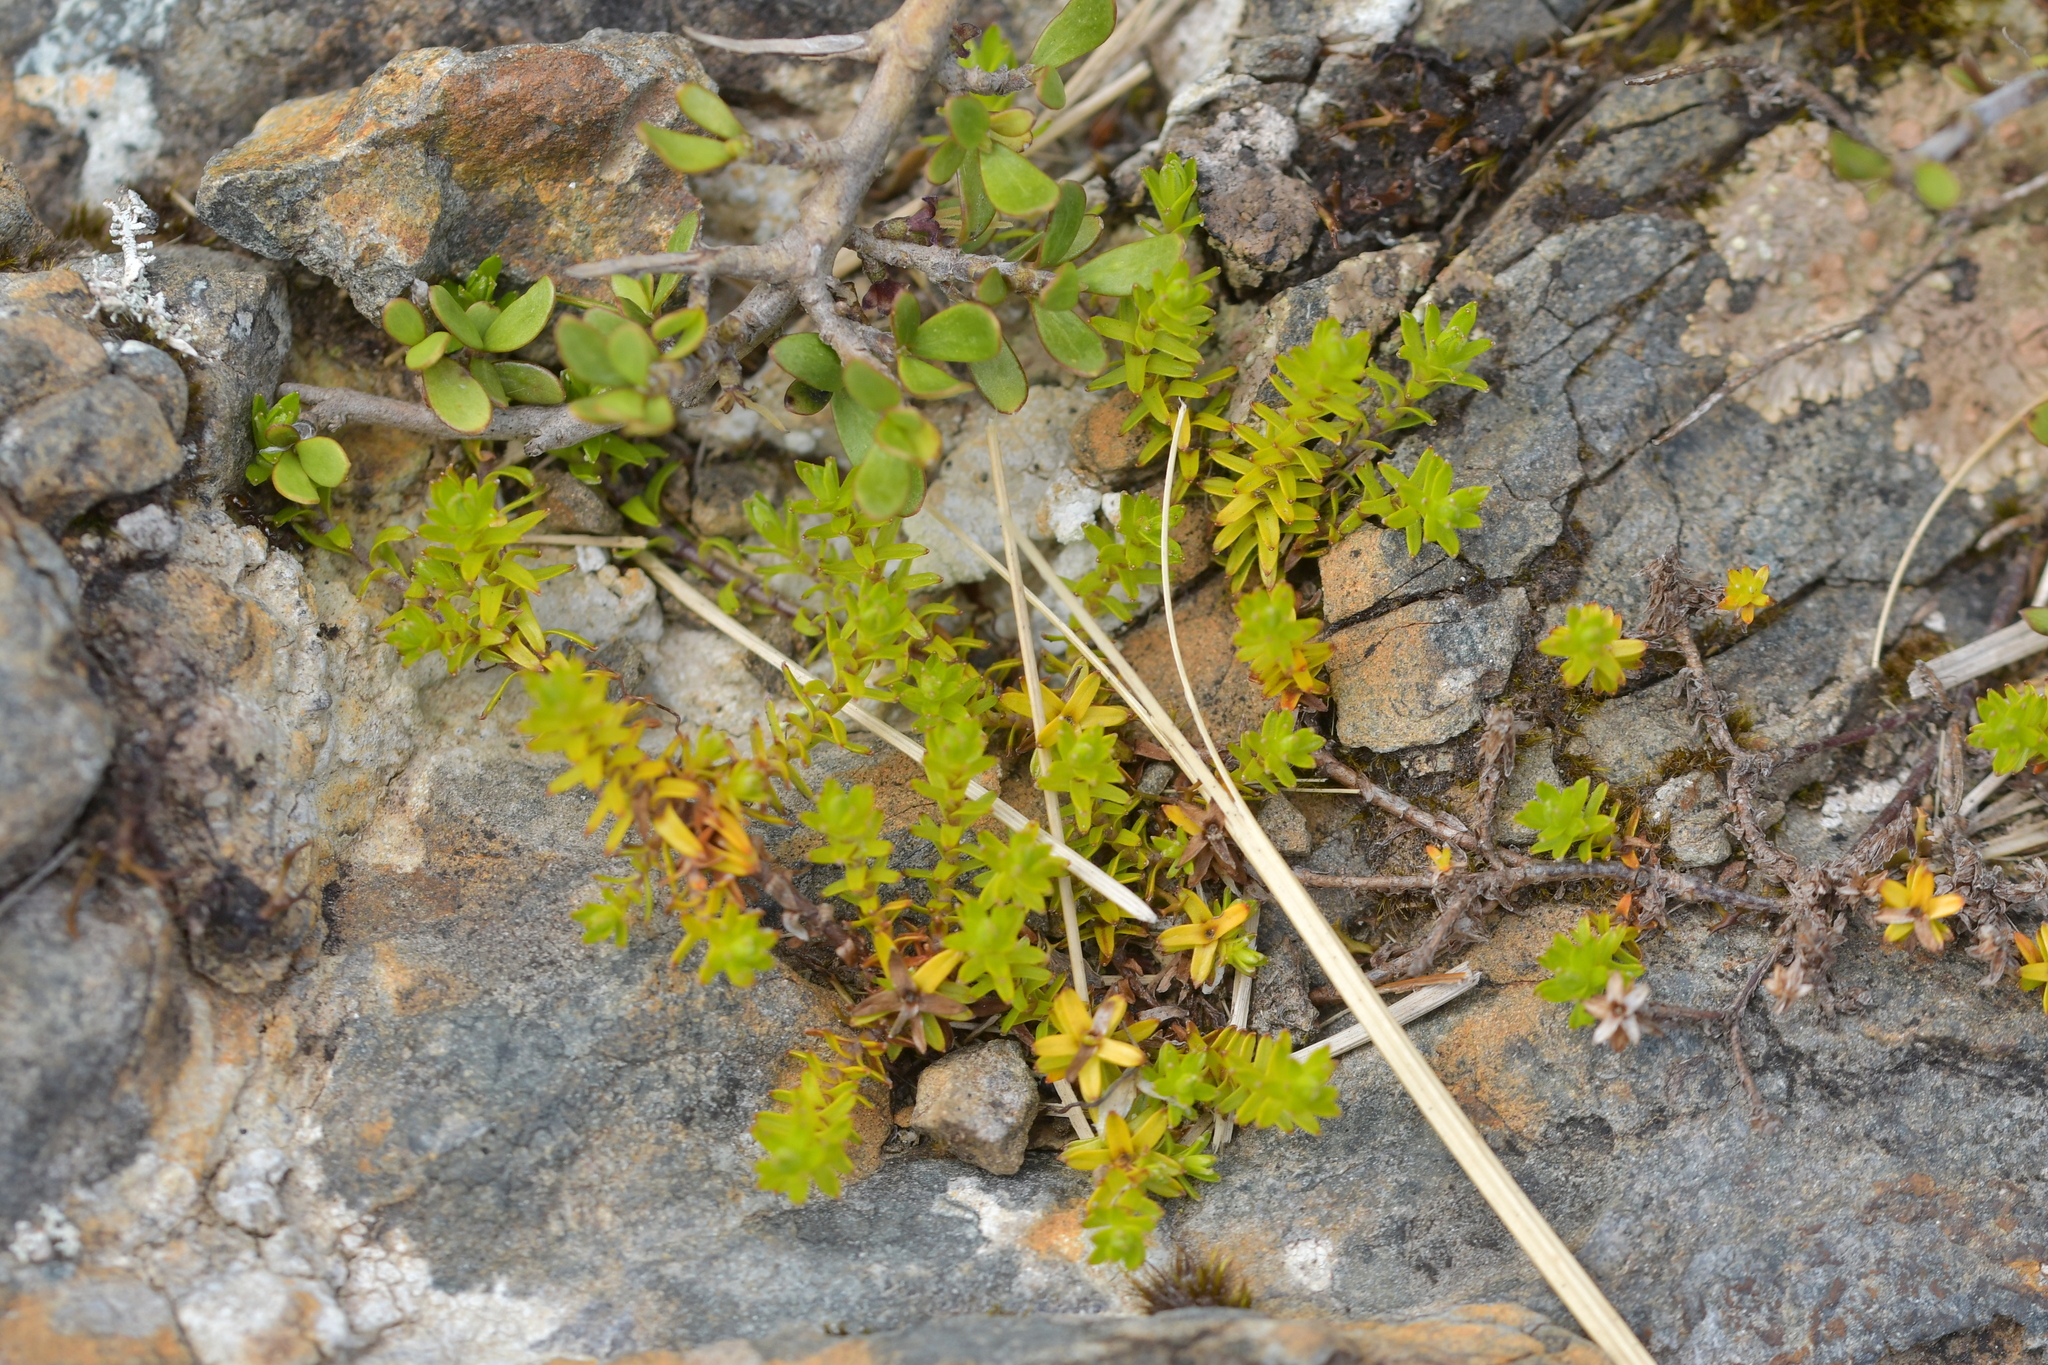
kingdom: Plantae
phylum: Tracheophyta
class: Magnoliopsida
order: Asterales
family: Asteraceae
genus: Raoulia
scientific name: Raoulia glabra
